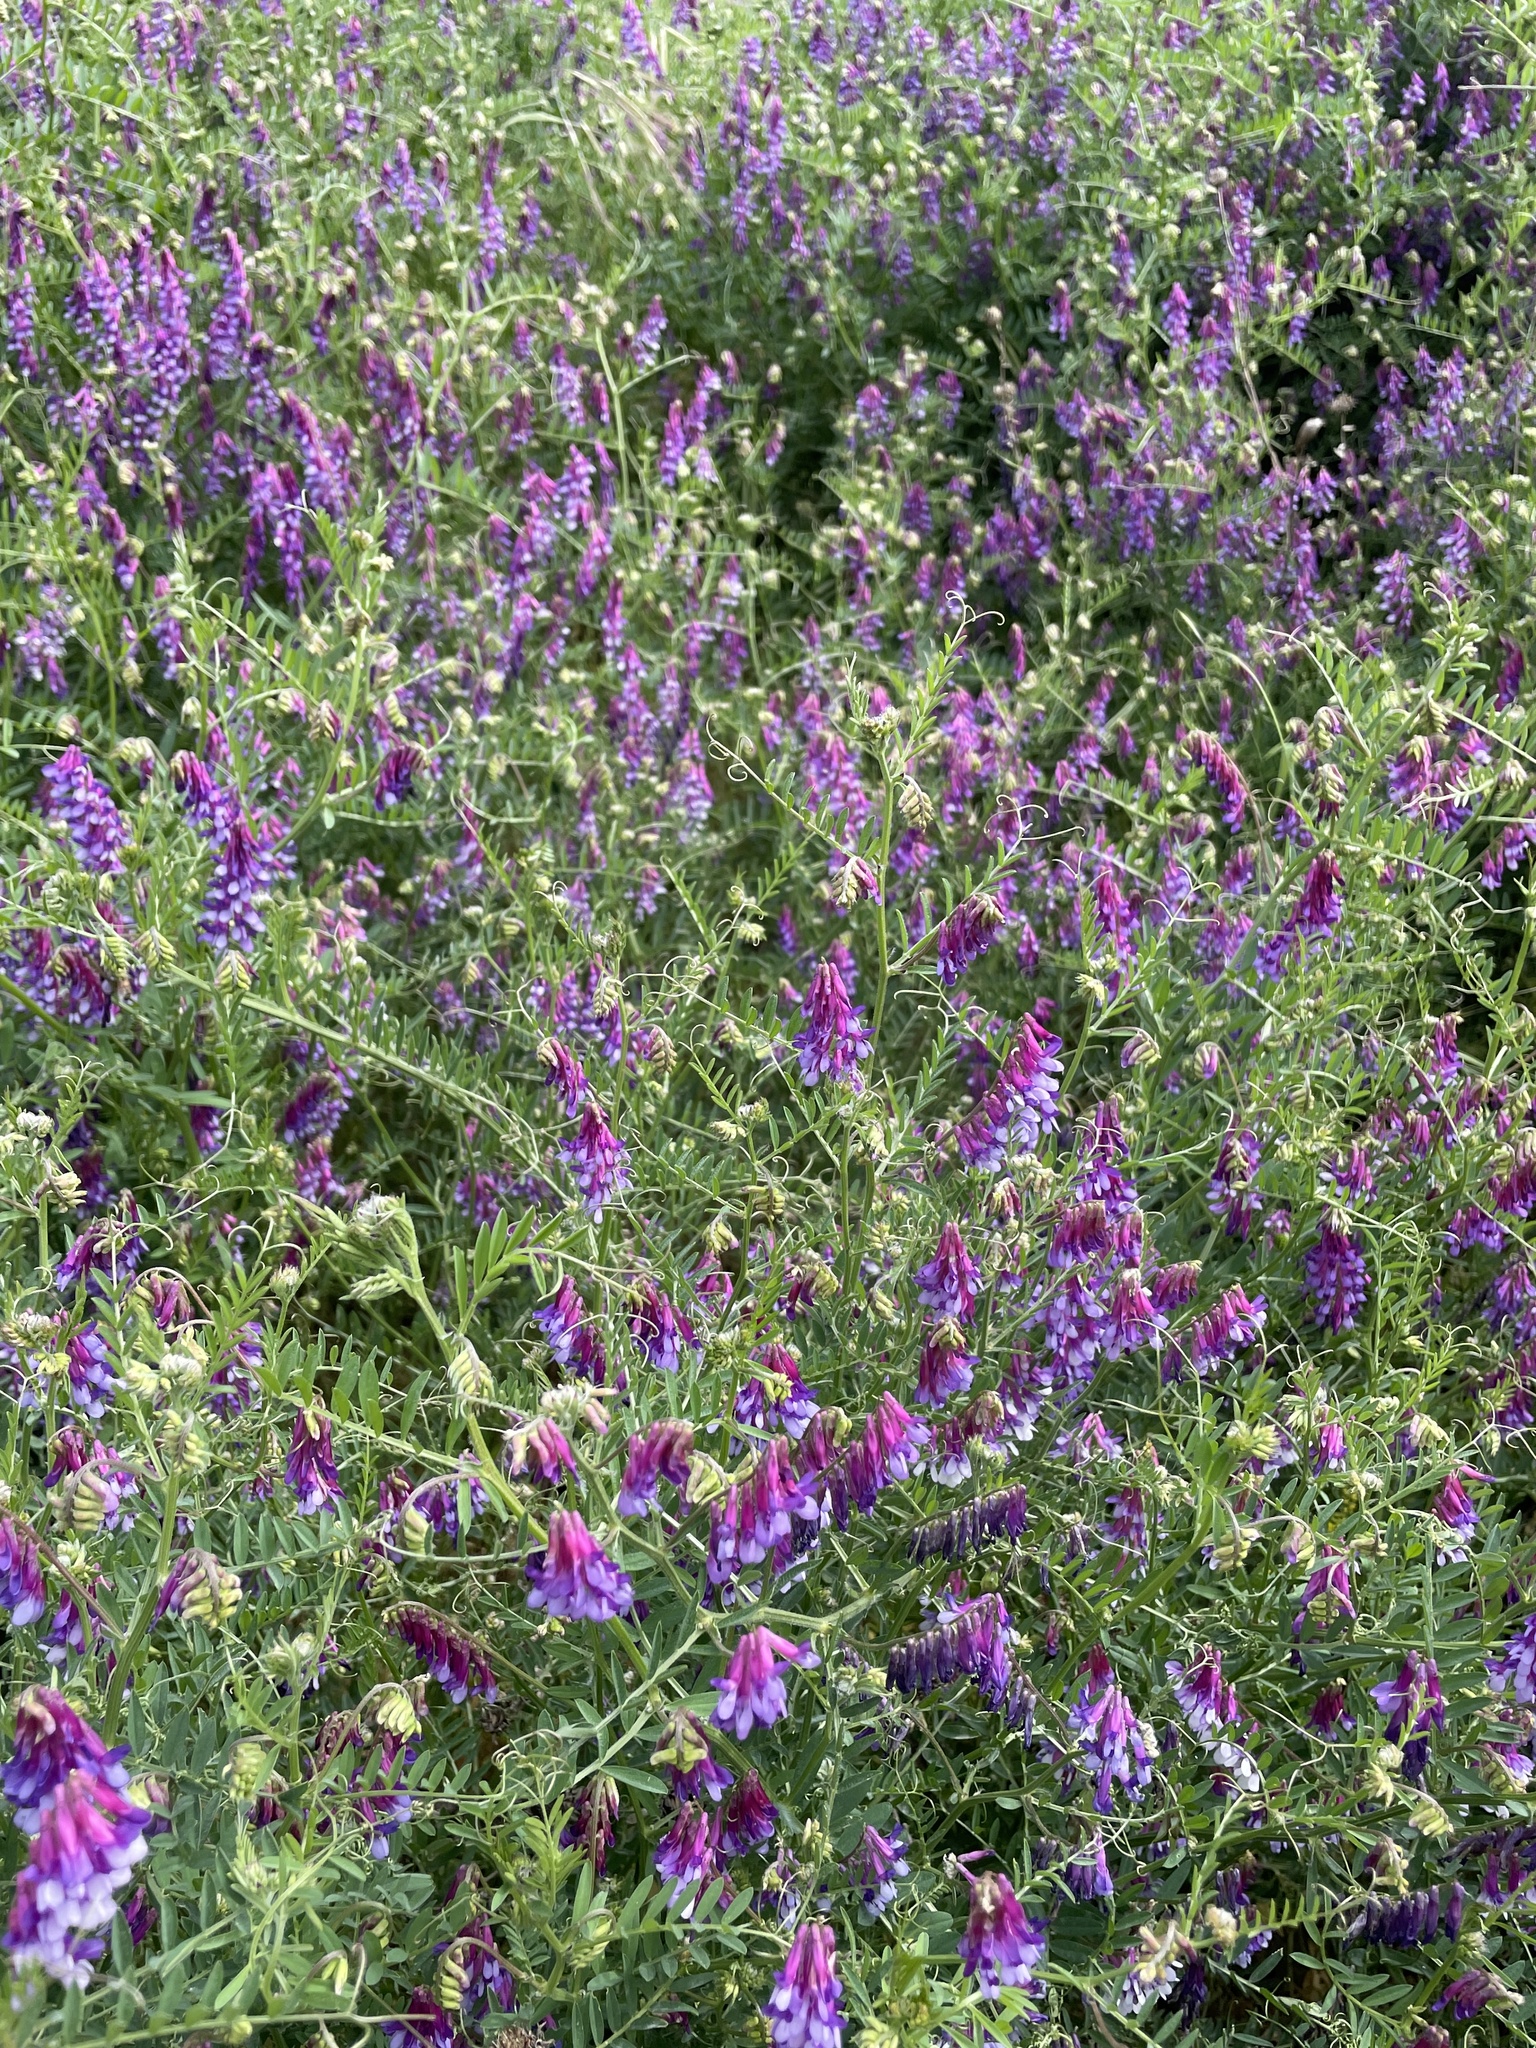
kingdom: Plantae
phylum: Tracheophyta
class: Magnoliopsida
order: Fabales
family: Fabaceae
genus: Vicia
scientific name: Vicia villosa
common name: Fodder vetch
